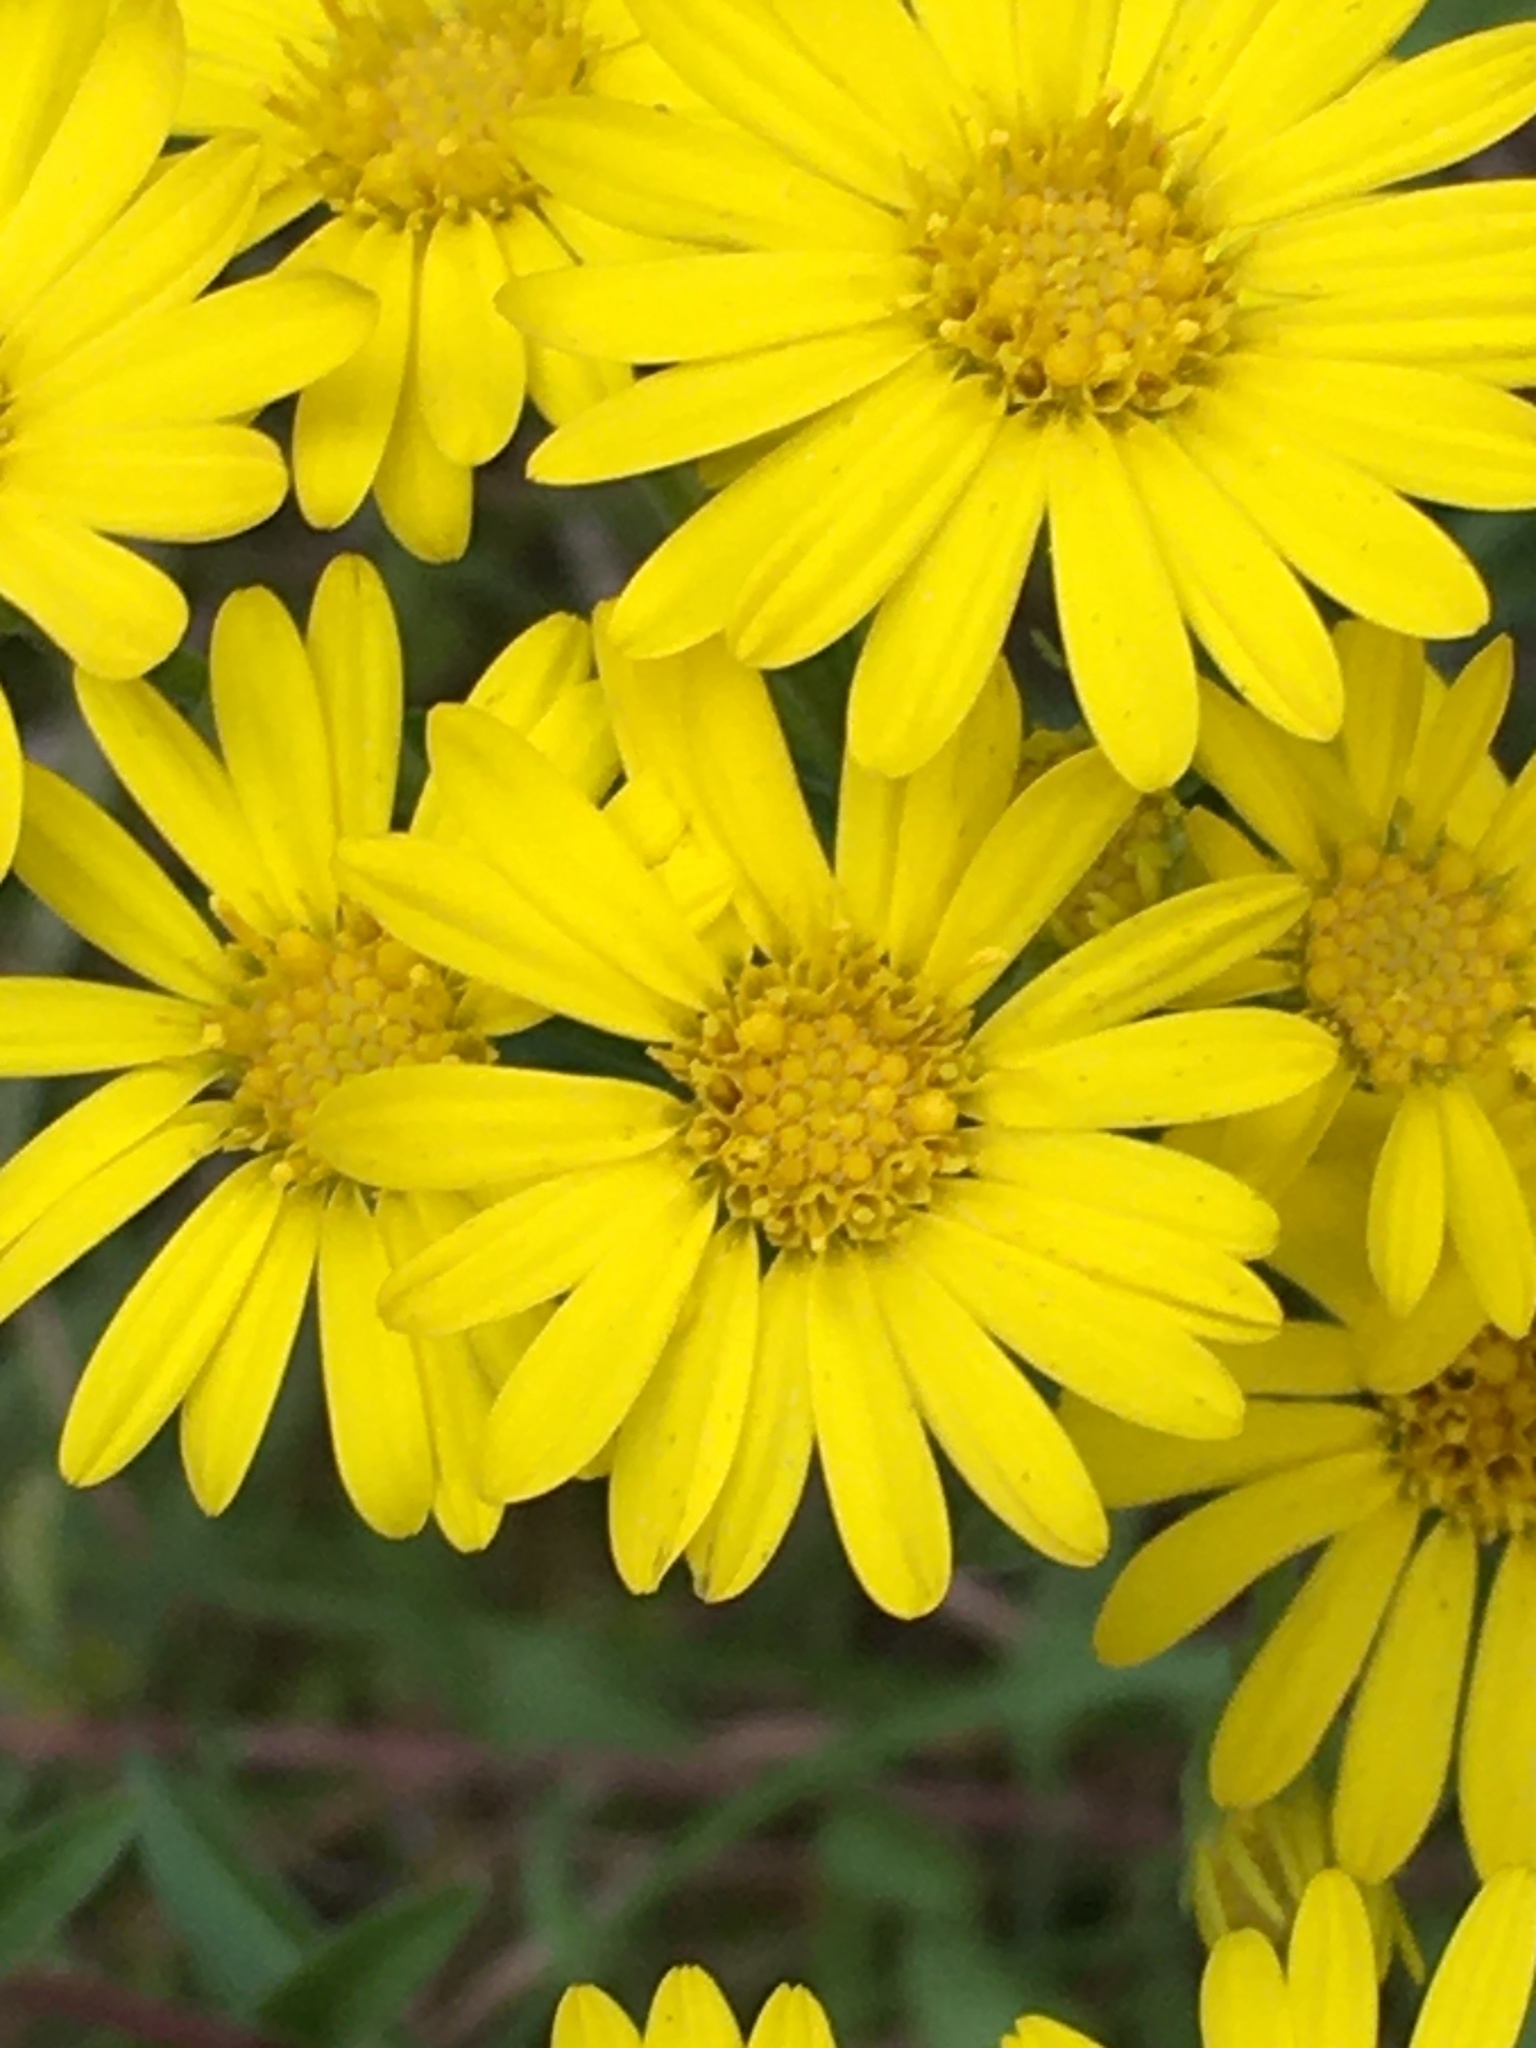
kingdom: Plantae
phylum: Tracheophyta
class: Magnoliopsida
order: Asterales
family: Asteraceae
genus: Chrysopsis
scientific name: Chrysopsis mariana
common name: Maryland golden-aster
